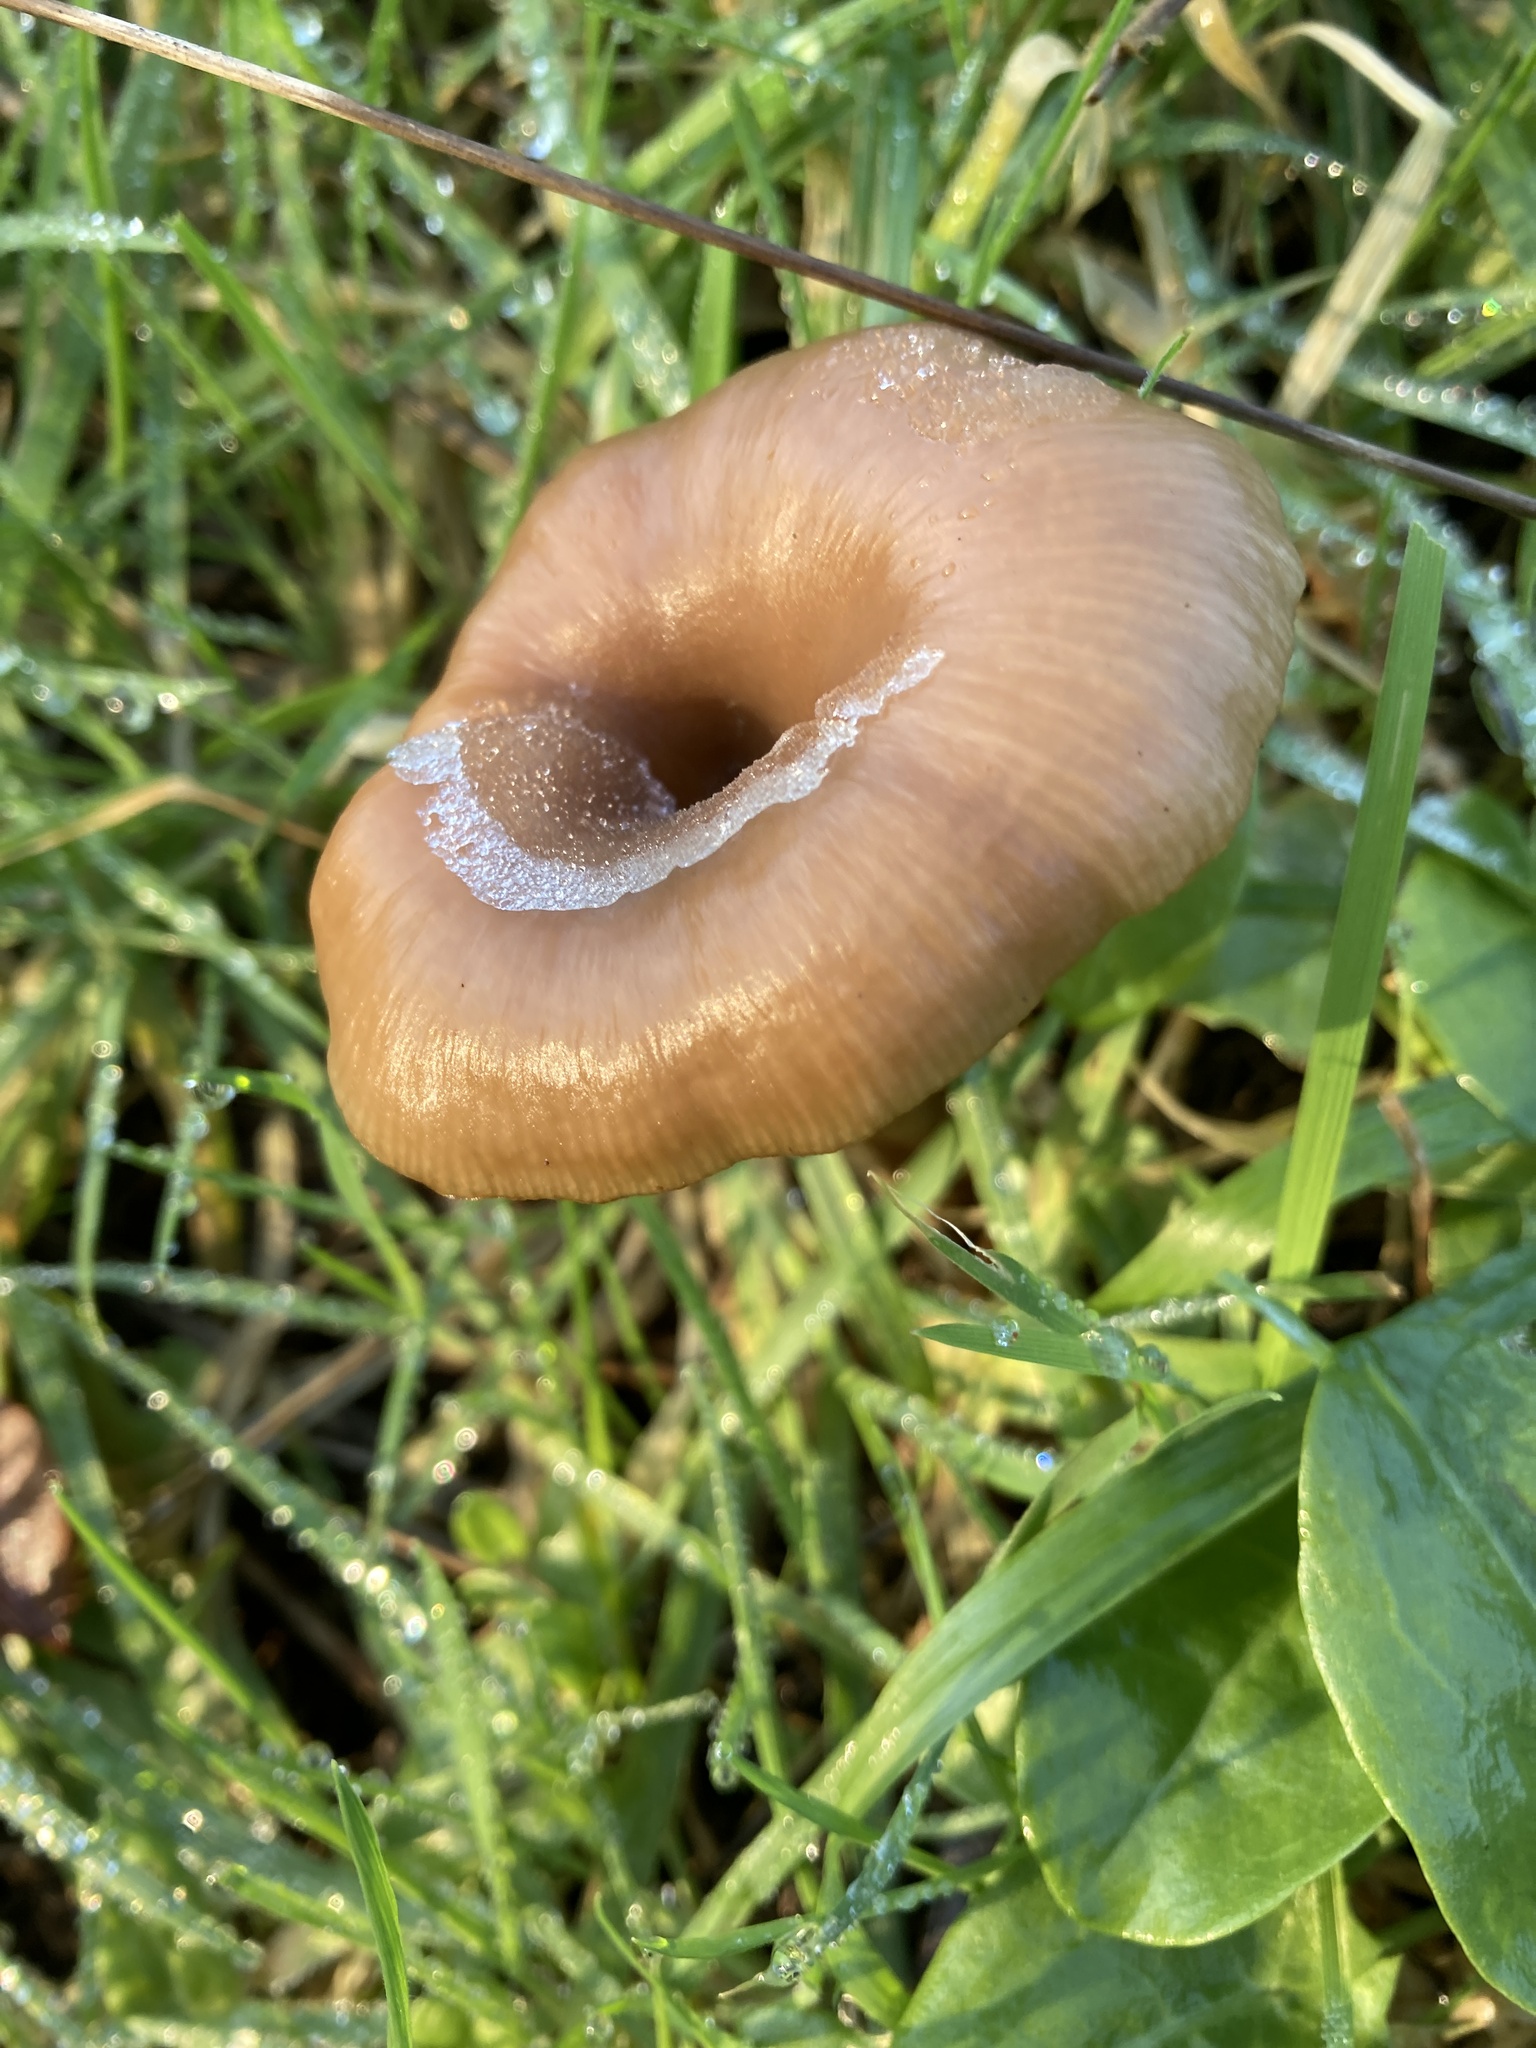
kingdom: Fungi
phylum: Basidiomycota
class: Agaricomycetes
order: Agaricales
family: Pseudoclitocybaceae
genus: Pseudoclitocybe
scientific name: Pseudoclitocybe cyathiformis
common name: Goblet
